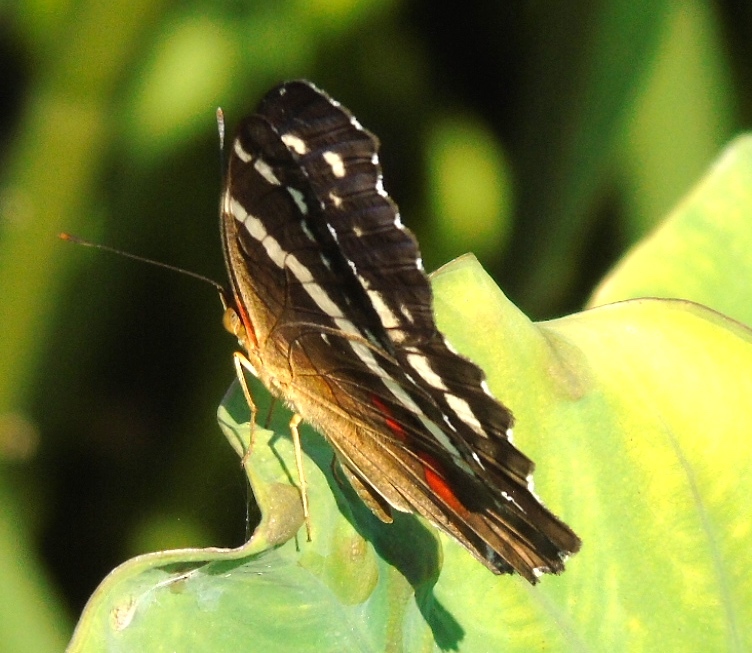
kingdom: Animalia
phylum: Arthropoda
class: Insecta
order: Lepidoptera
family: Nymphalidae
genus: Anartia
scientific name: Anartia fatima
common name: Banded peacock
